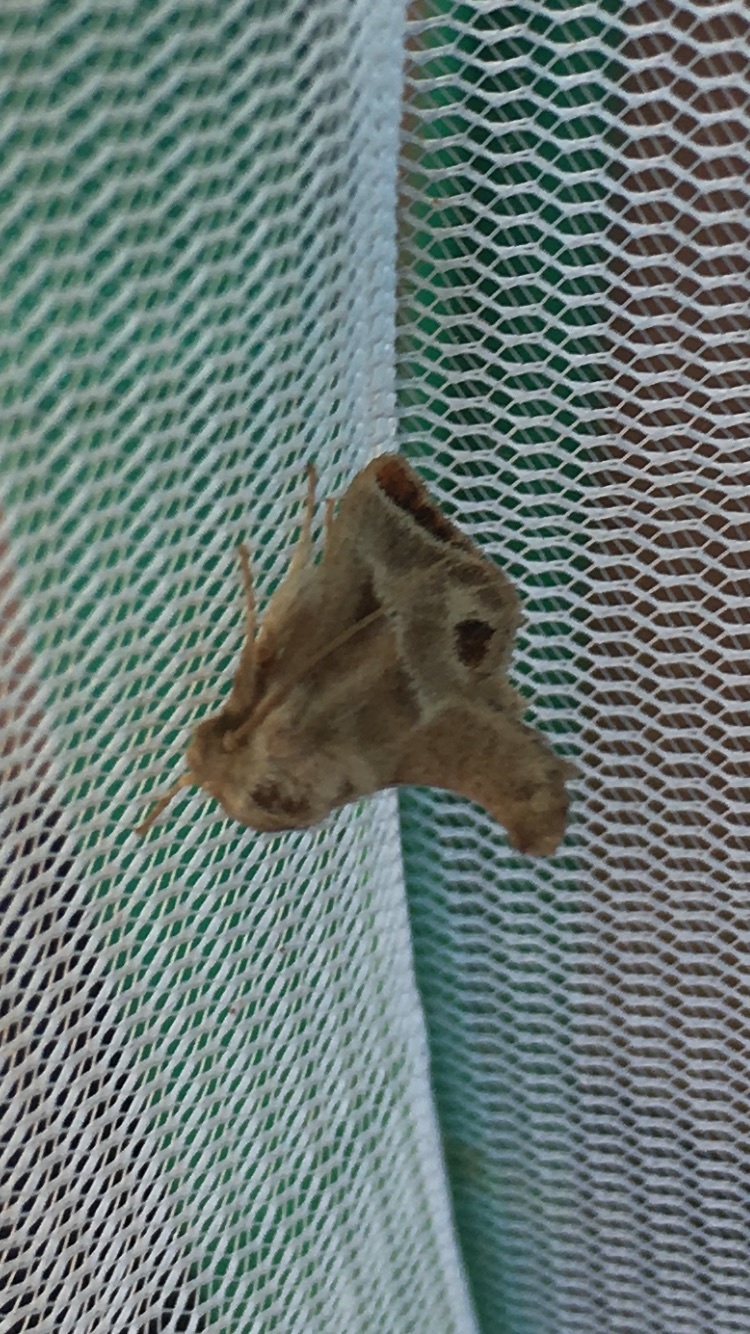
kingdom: Animalia
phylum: Arthropoda
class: Insecta
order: Lepidoptera
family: Limacodidae
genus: Apoda
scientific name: Apoda biguttata
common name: Shagreened slug moth
